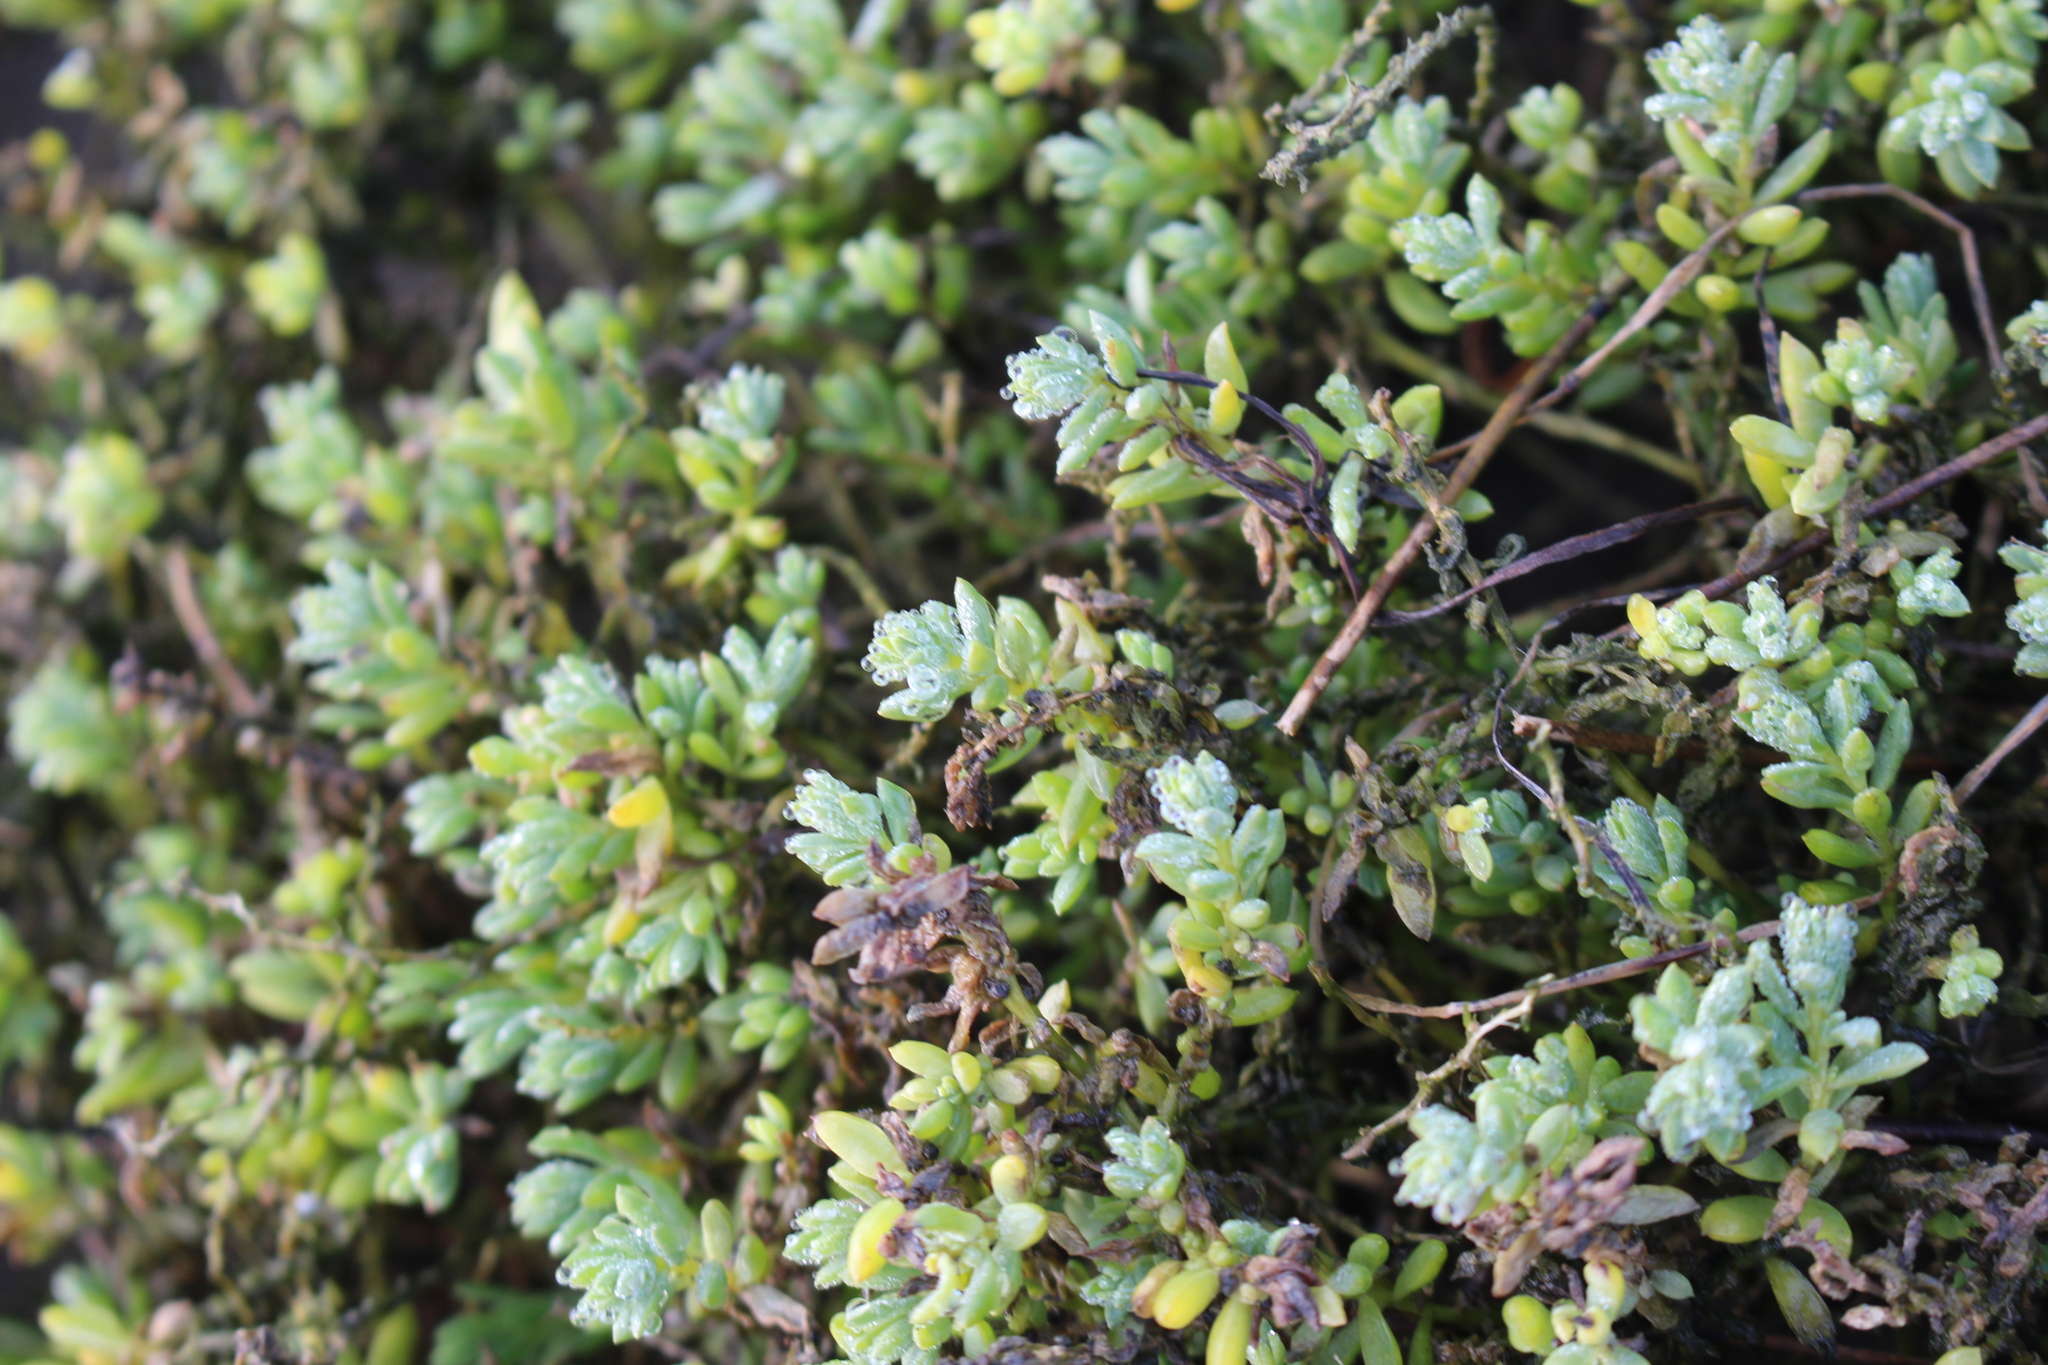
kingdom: Plantae
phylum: Tracheophyta
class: Magnoliopsida
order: Caryophyllales
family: Amaranthaceae
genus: Suaeda
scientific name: Suaeda novae-zelandiae
